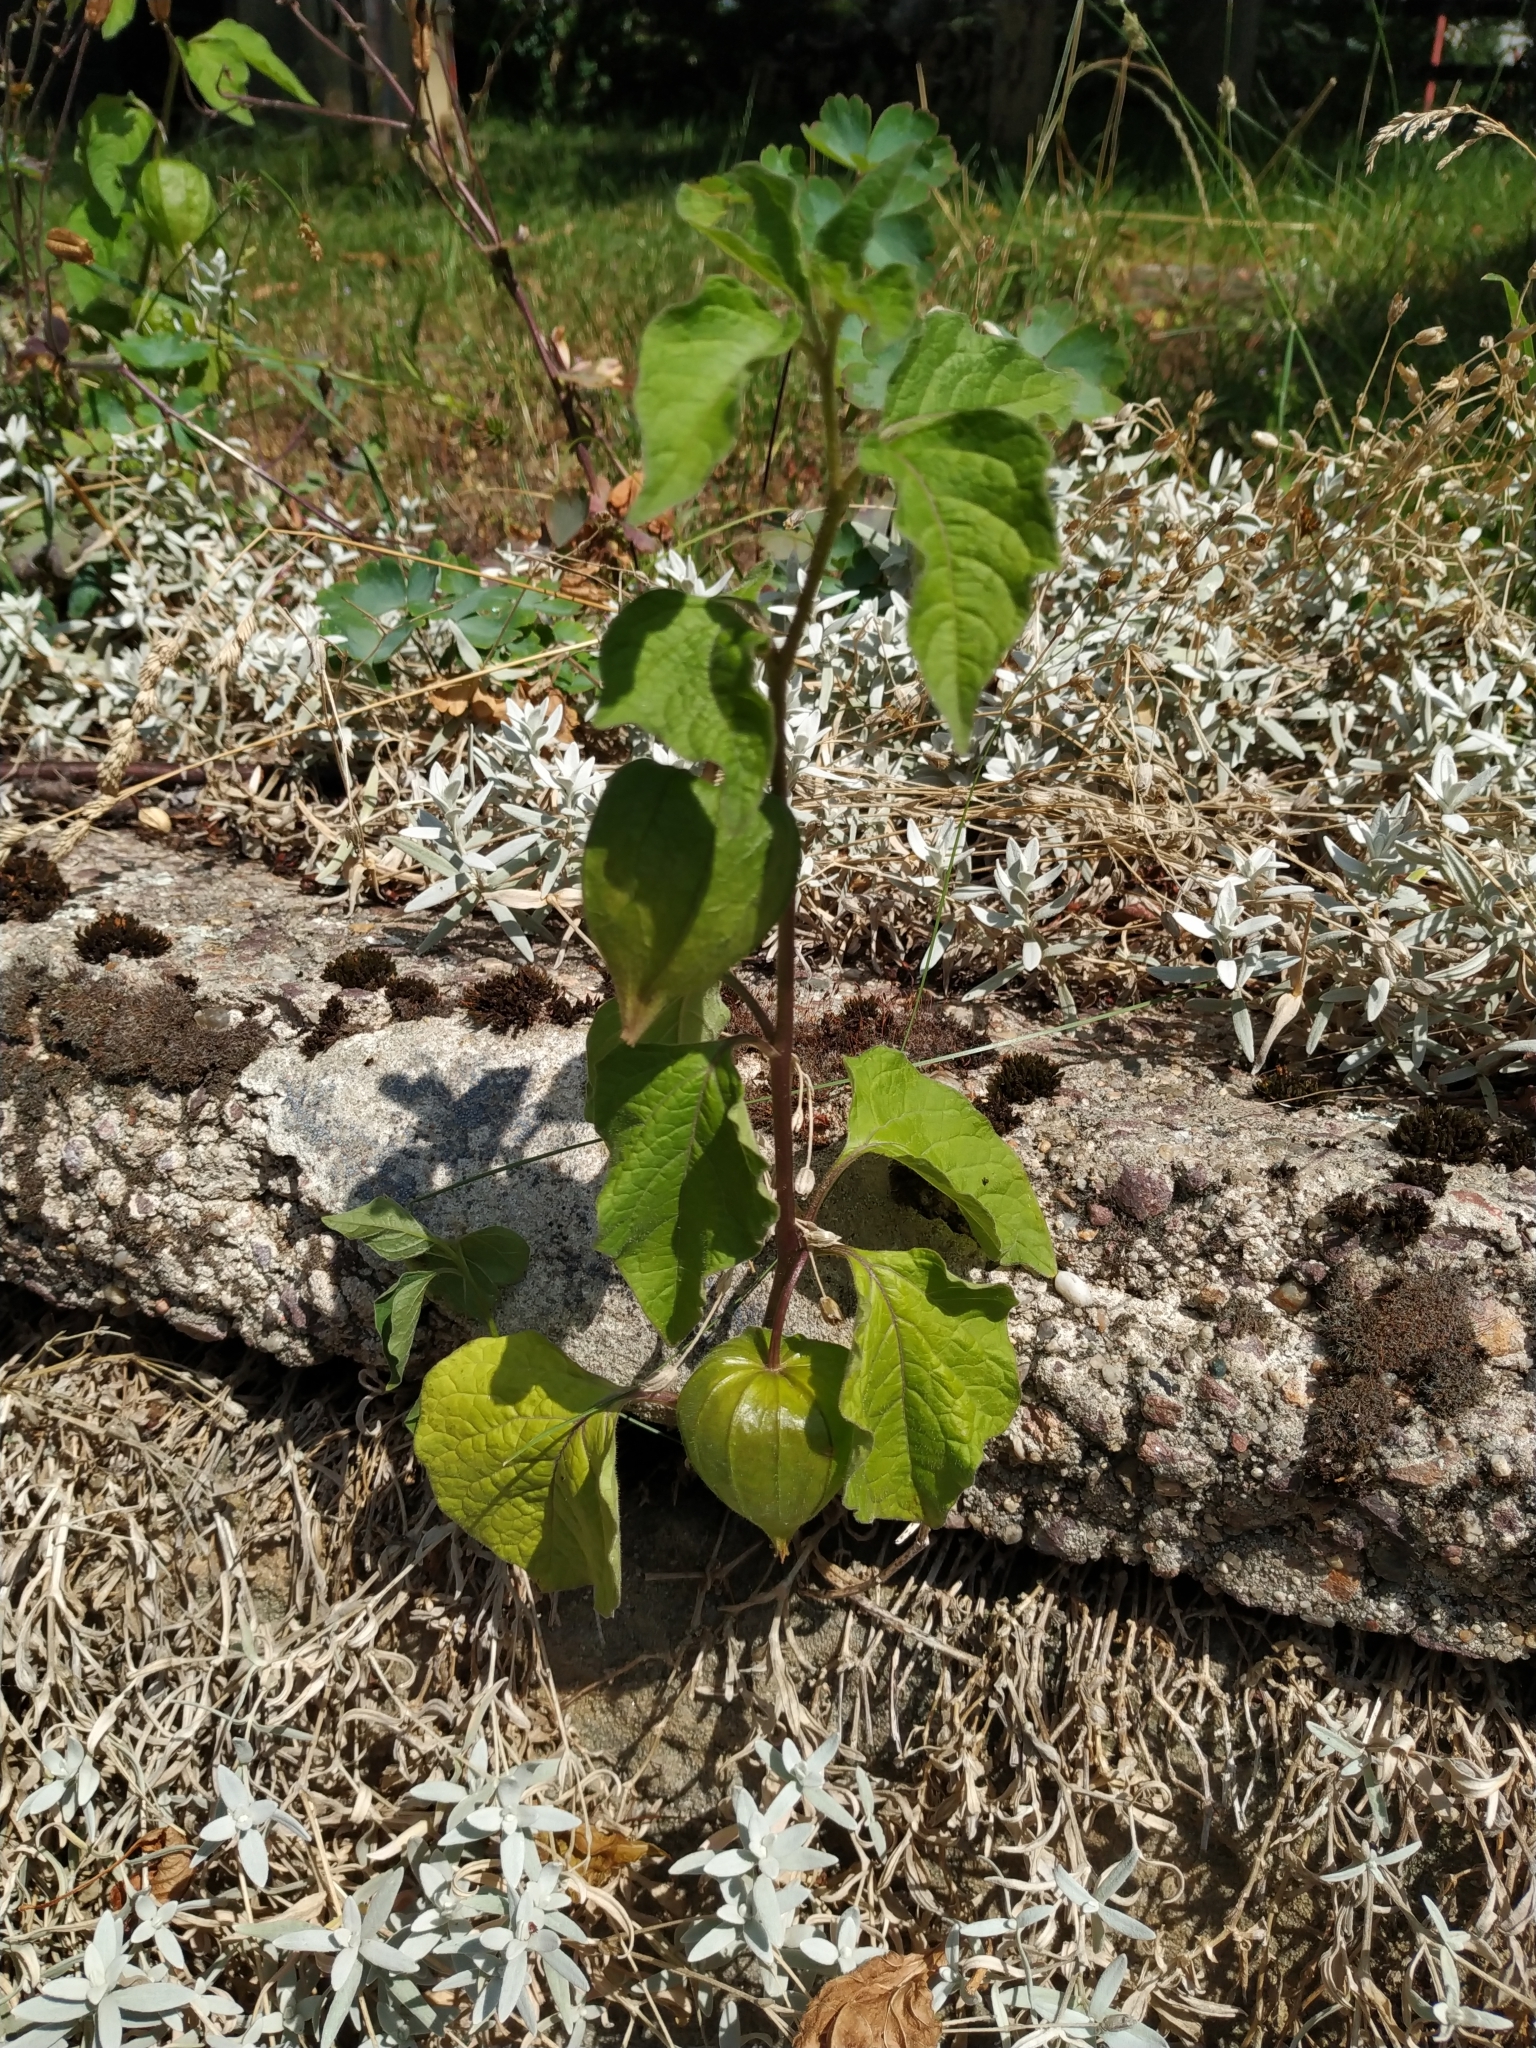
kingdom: Plantae
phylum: Tracheophyta
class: Magnoliopsida
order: Solanales
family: Solanaceae
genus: Alkekengi
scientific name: Alkekengi officinarum
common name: Japanese-lantern
